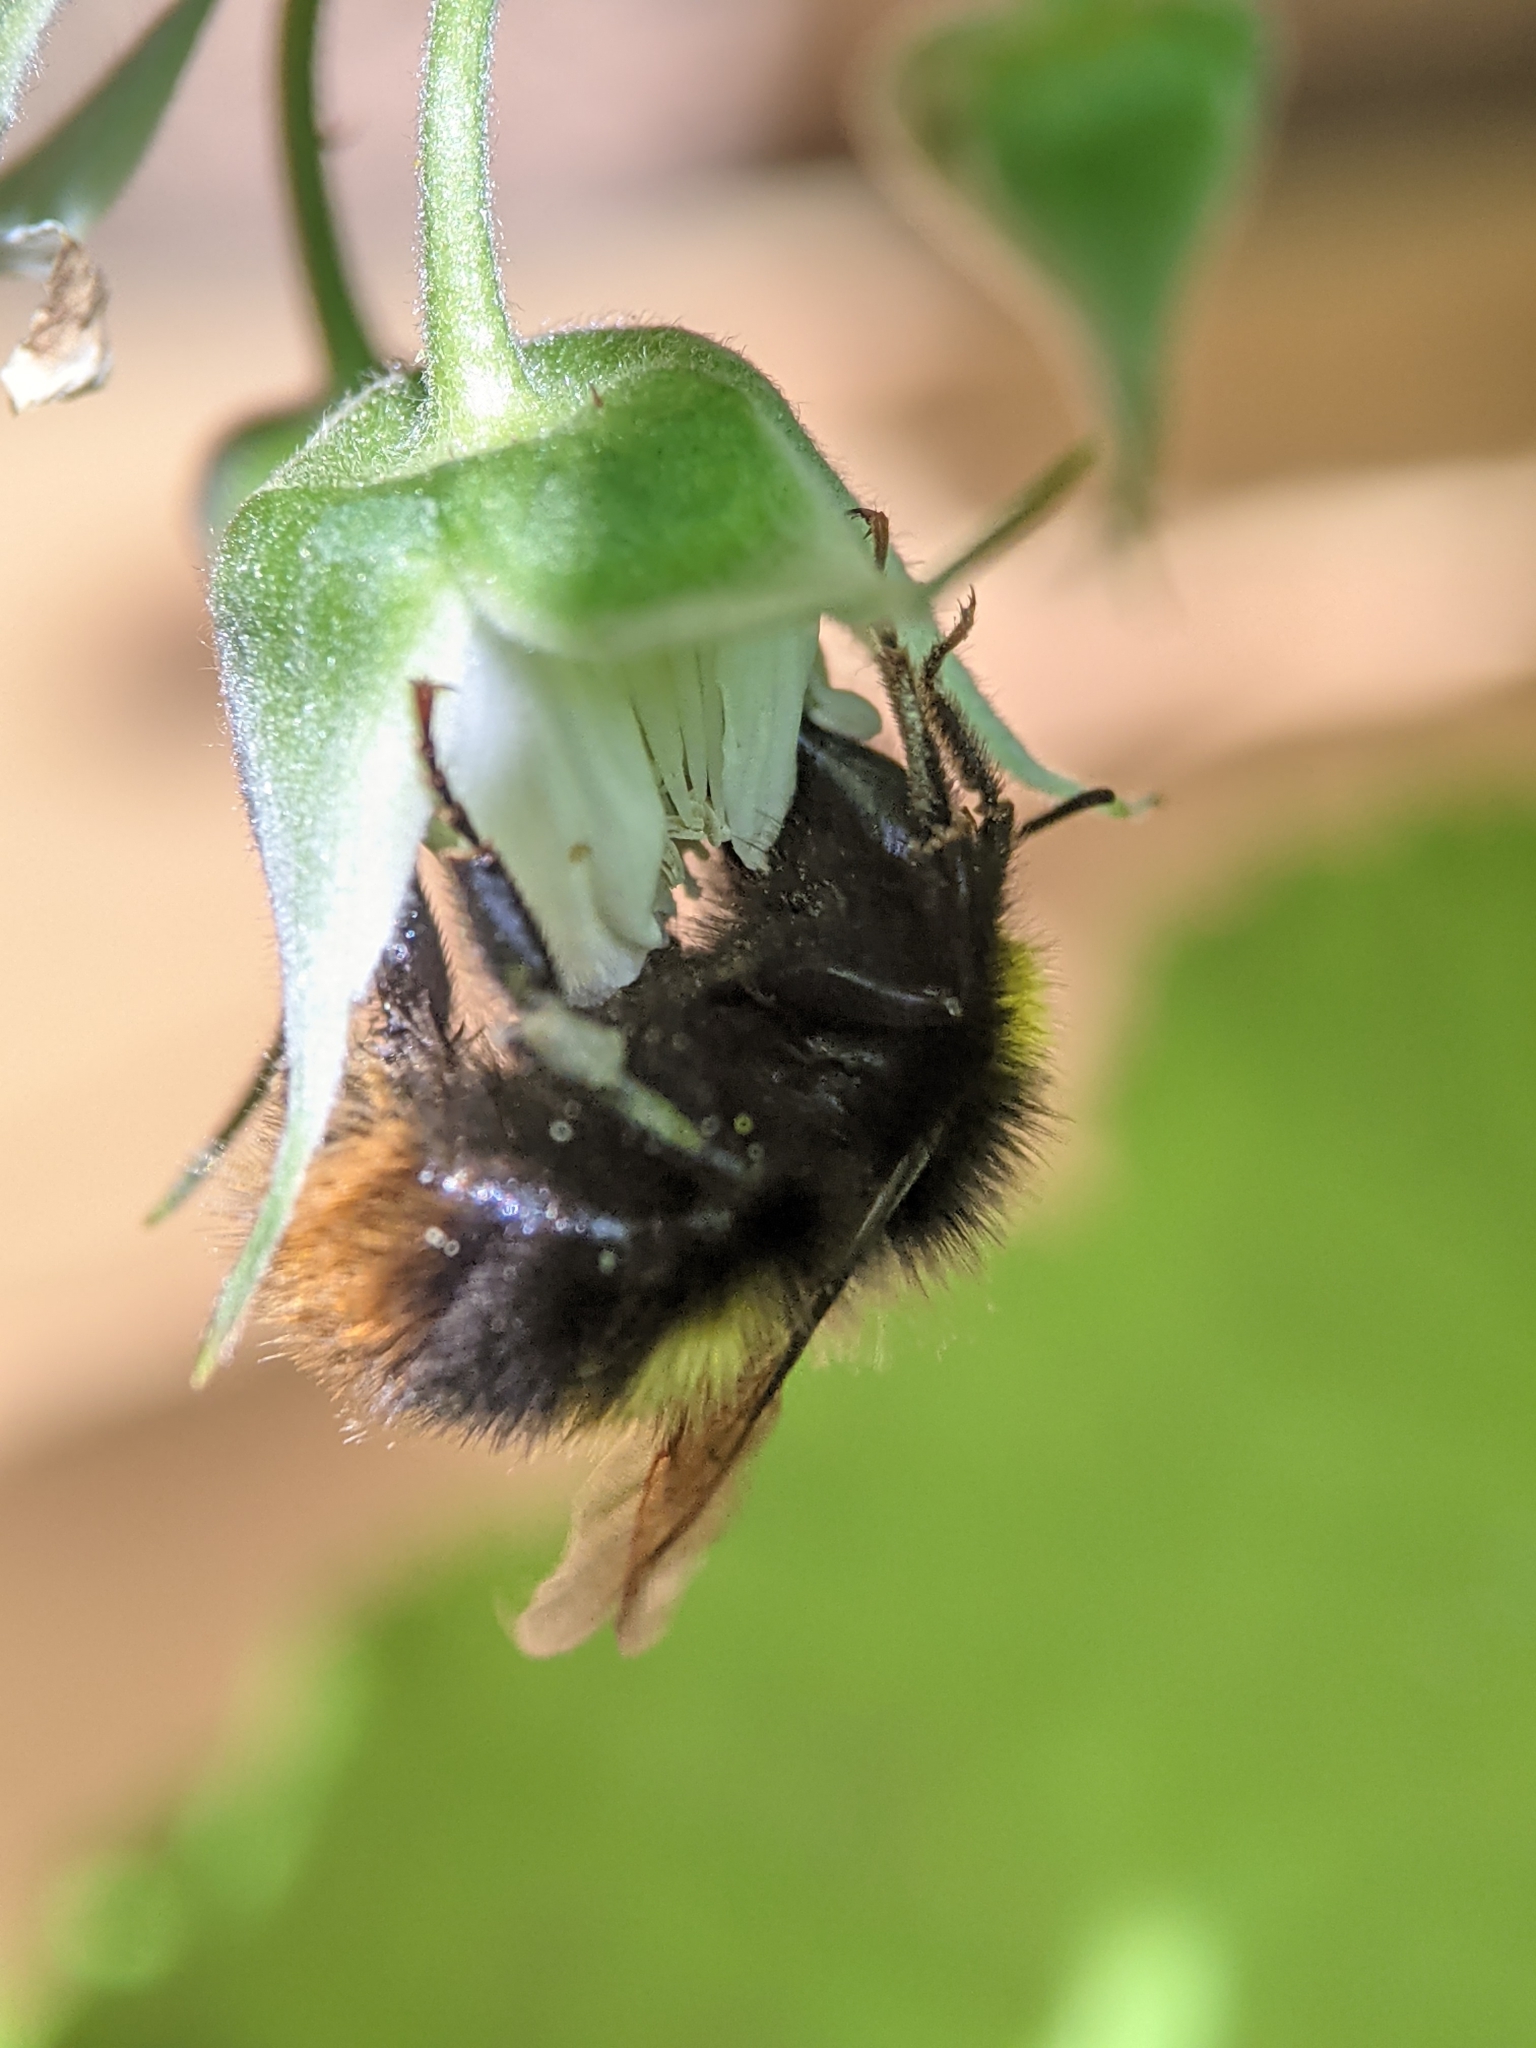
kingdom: Animalia
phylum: Arthropoda
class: Insecta
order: Hymenoptera
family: Apidae
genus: Bombus
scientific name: Bombus pratorum
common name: Early humble-bee
